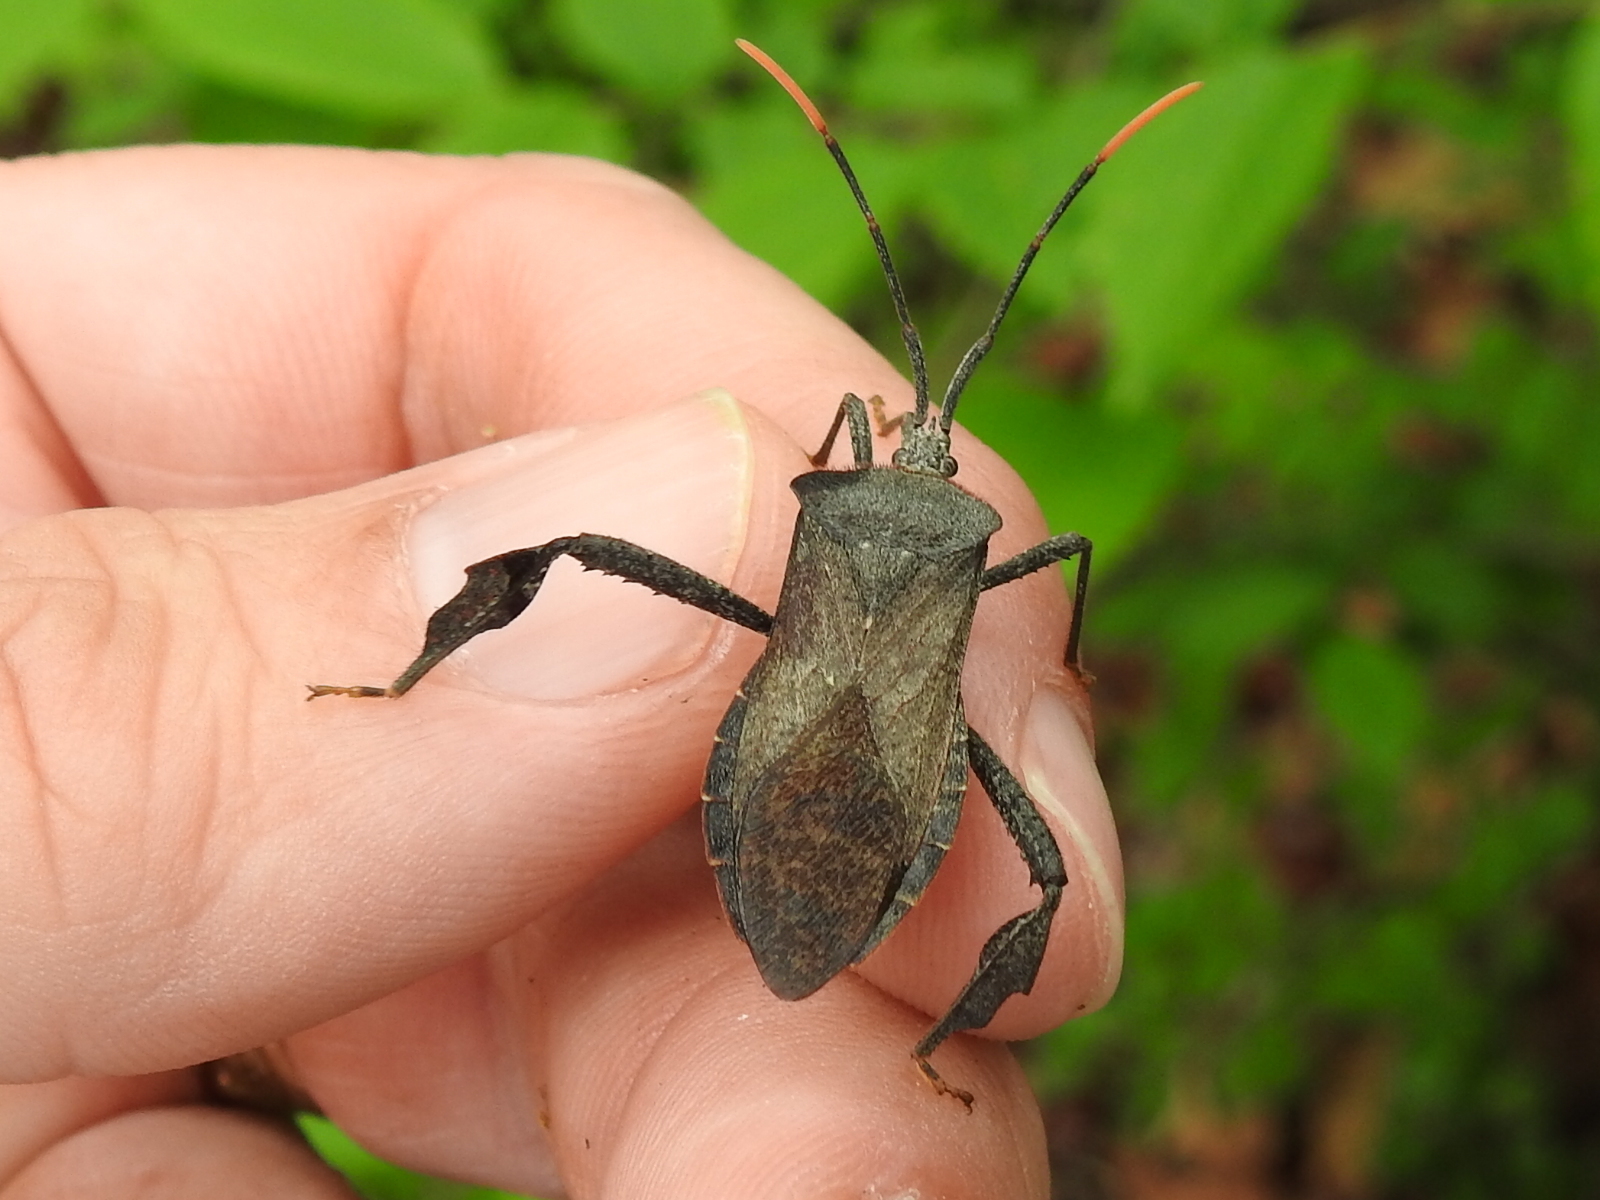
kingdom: Animalia
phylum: Arthropoda
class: Insecta
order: Hemiptera
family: Coreidae
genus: Acanthocephala
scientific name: Acanthocephala terminalis
